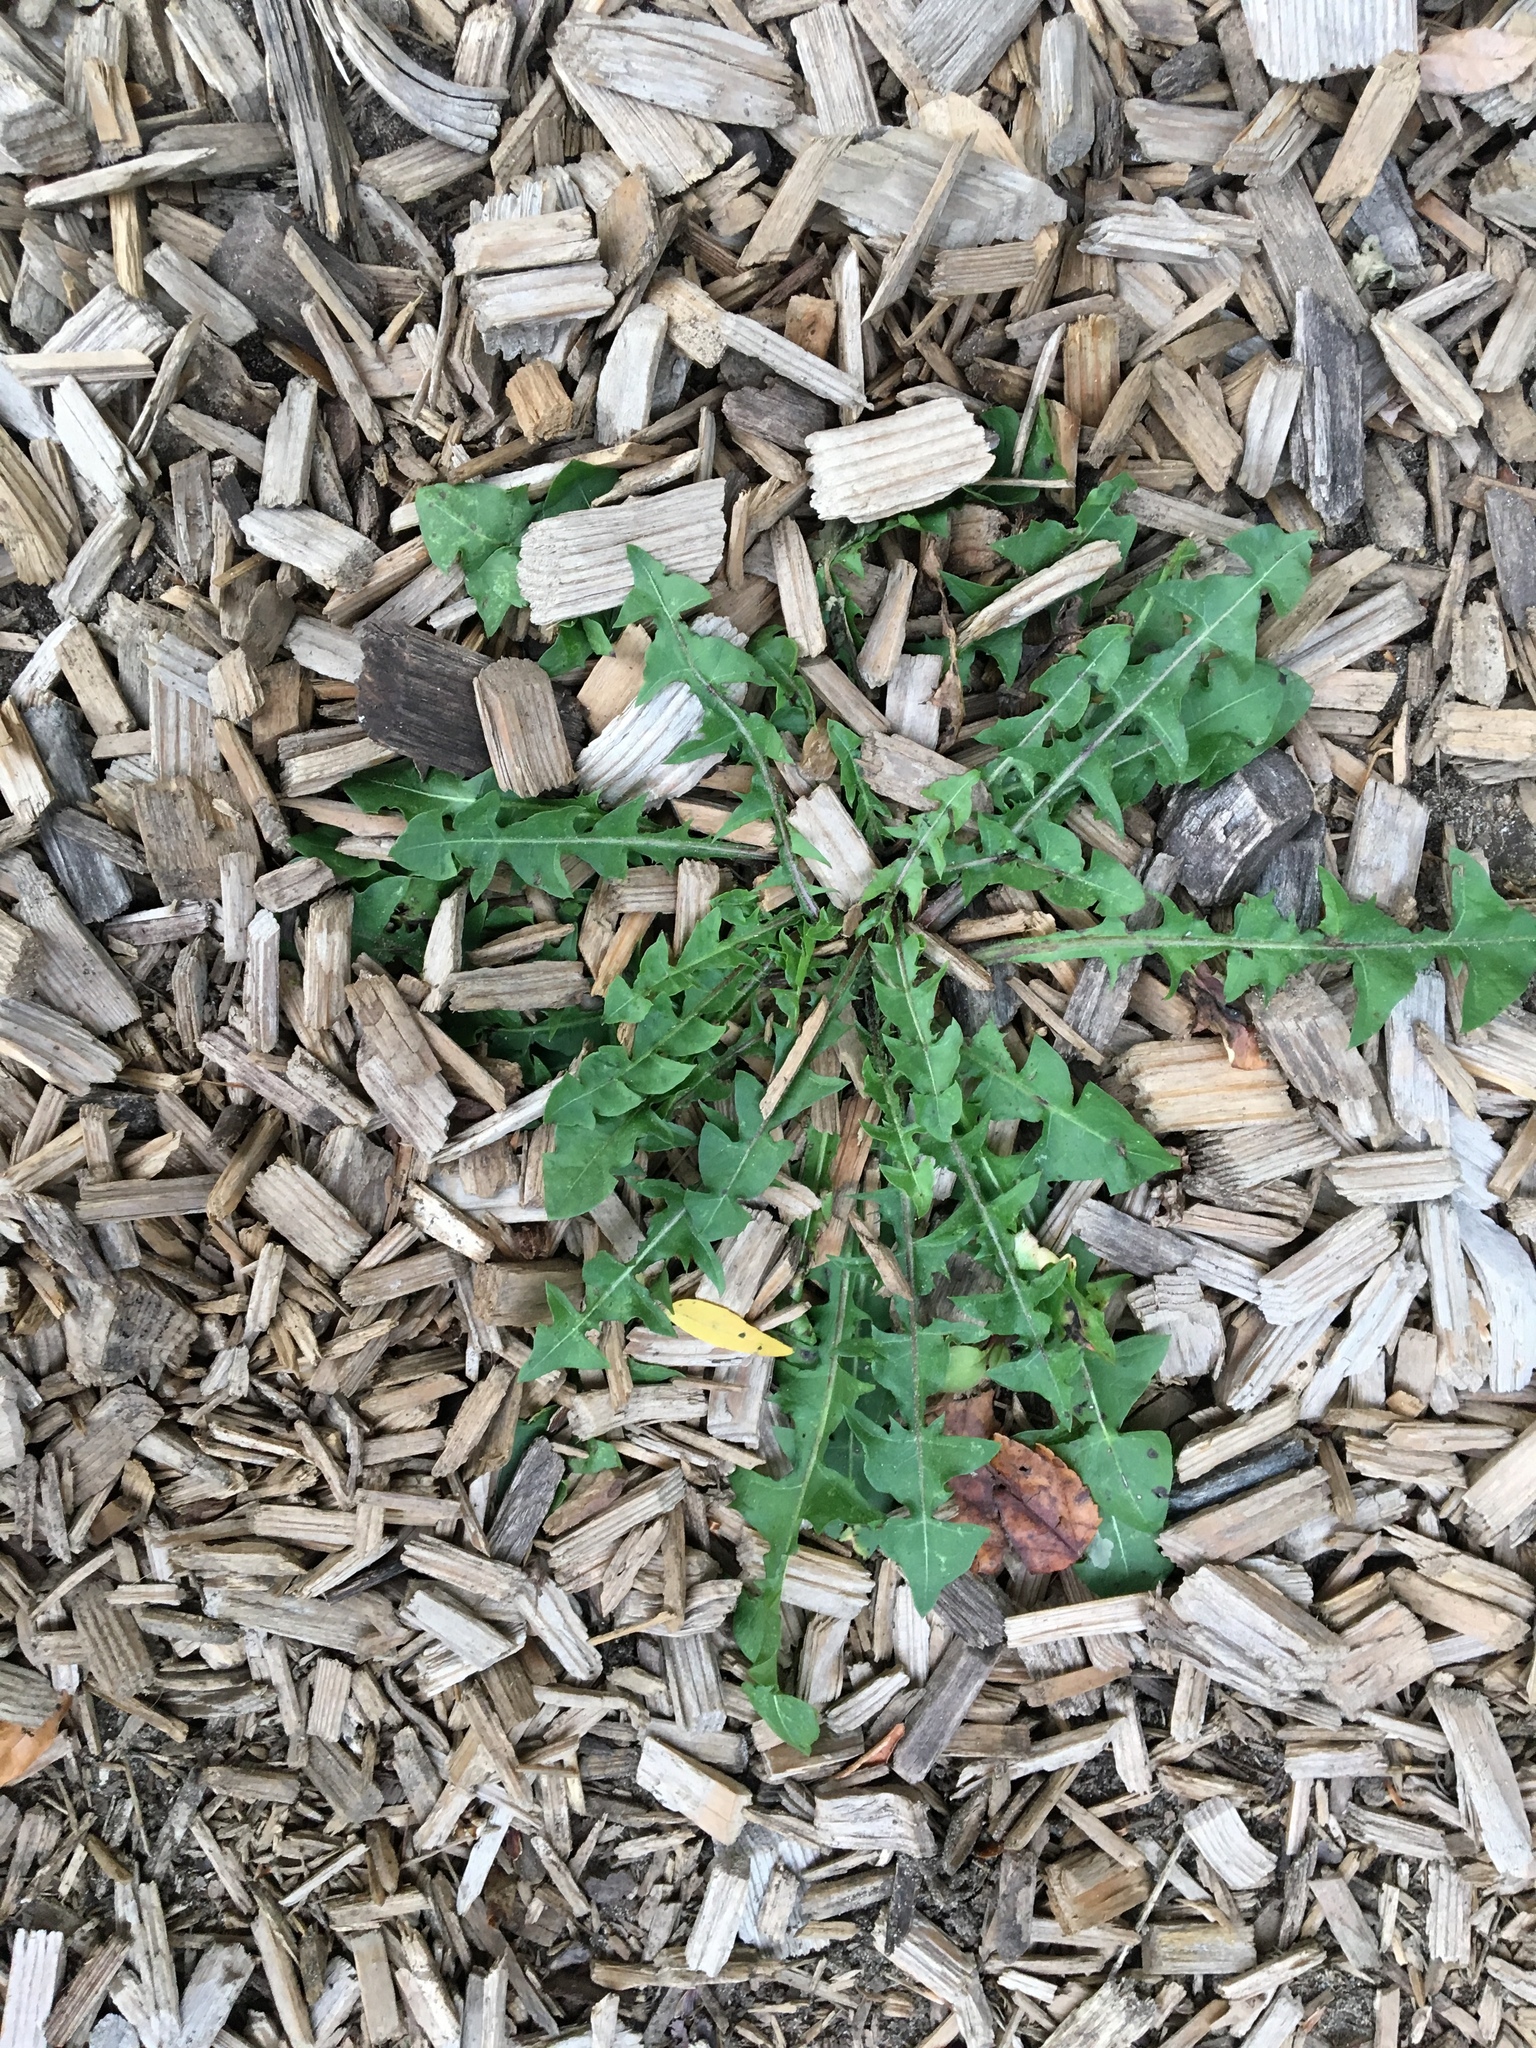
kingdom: Plantae
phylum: Tracheophyta
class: Magnoliopsida
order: Asterales
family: Asteraceae
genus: Taraxacum
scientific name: Taraxacum officinale
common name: Common dandelion
